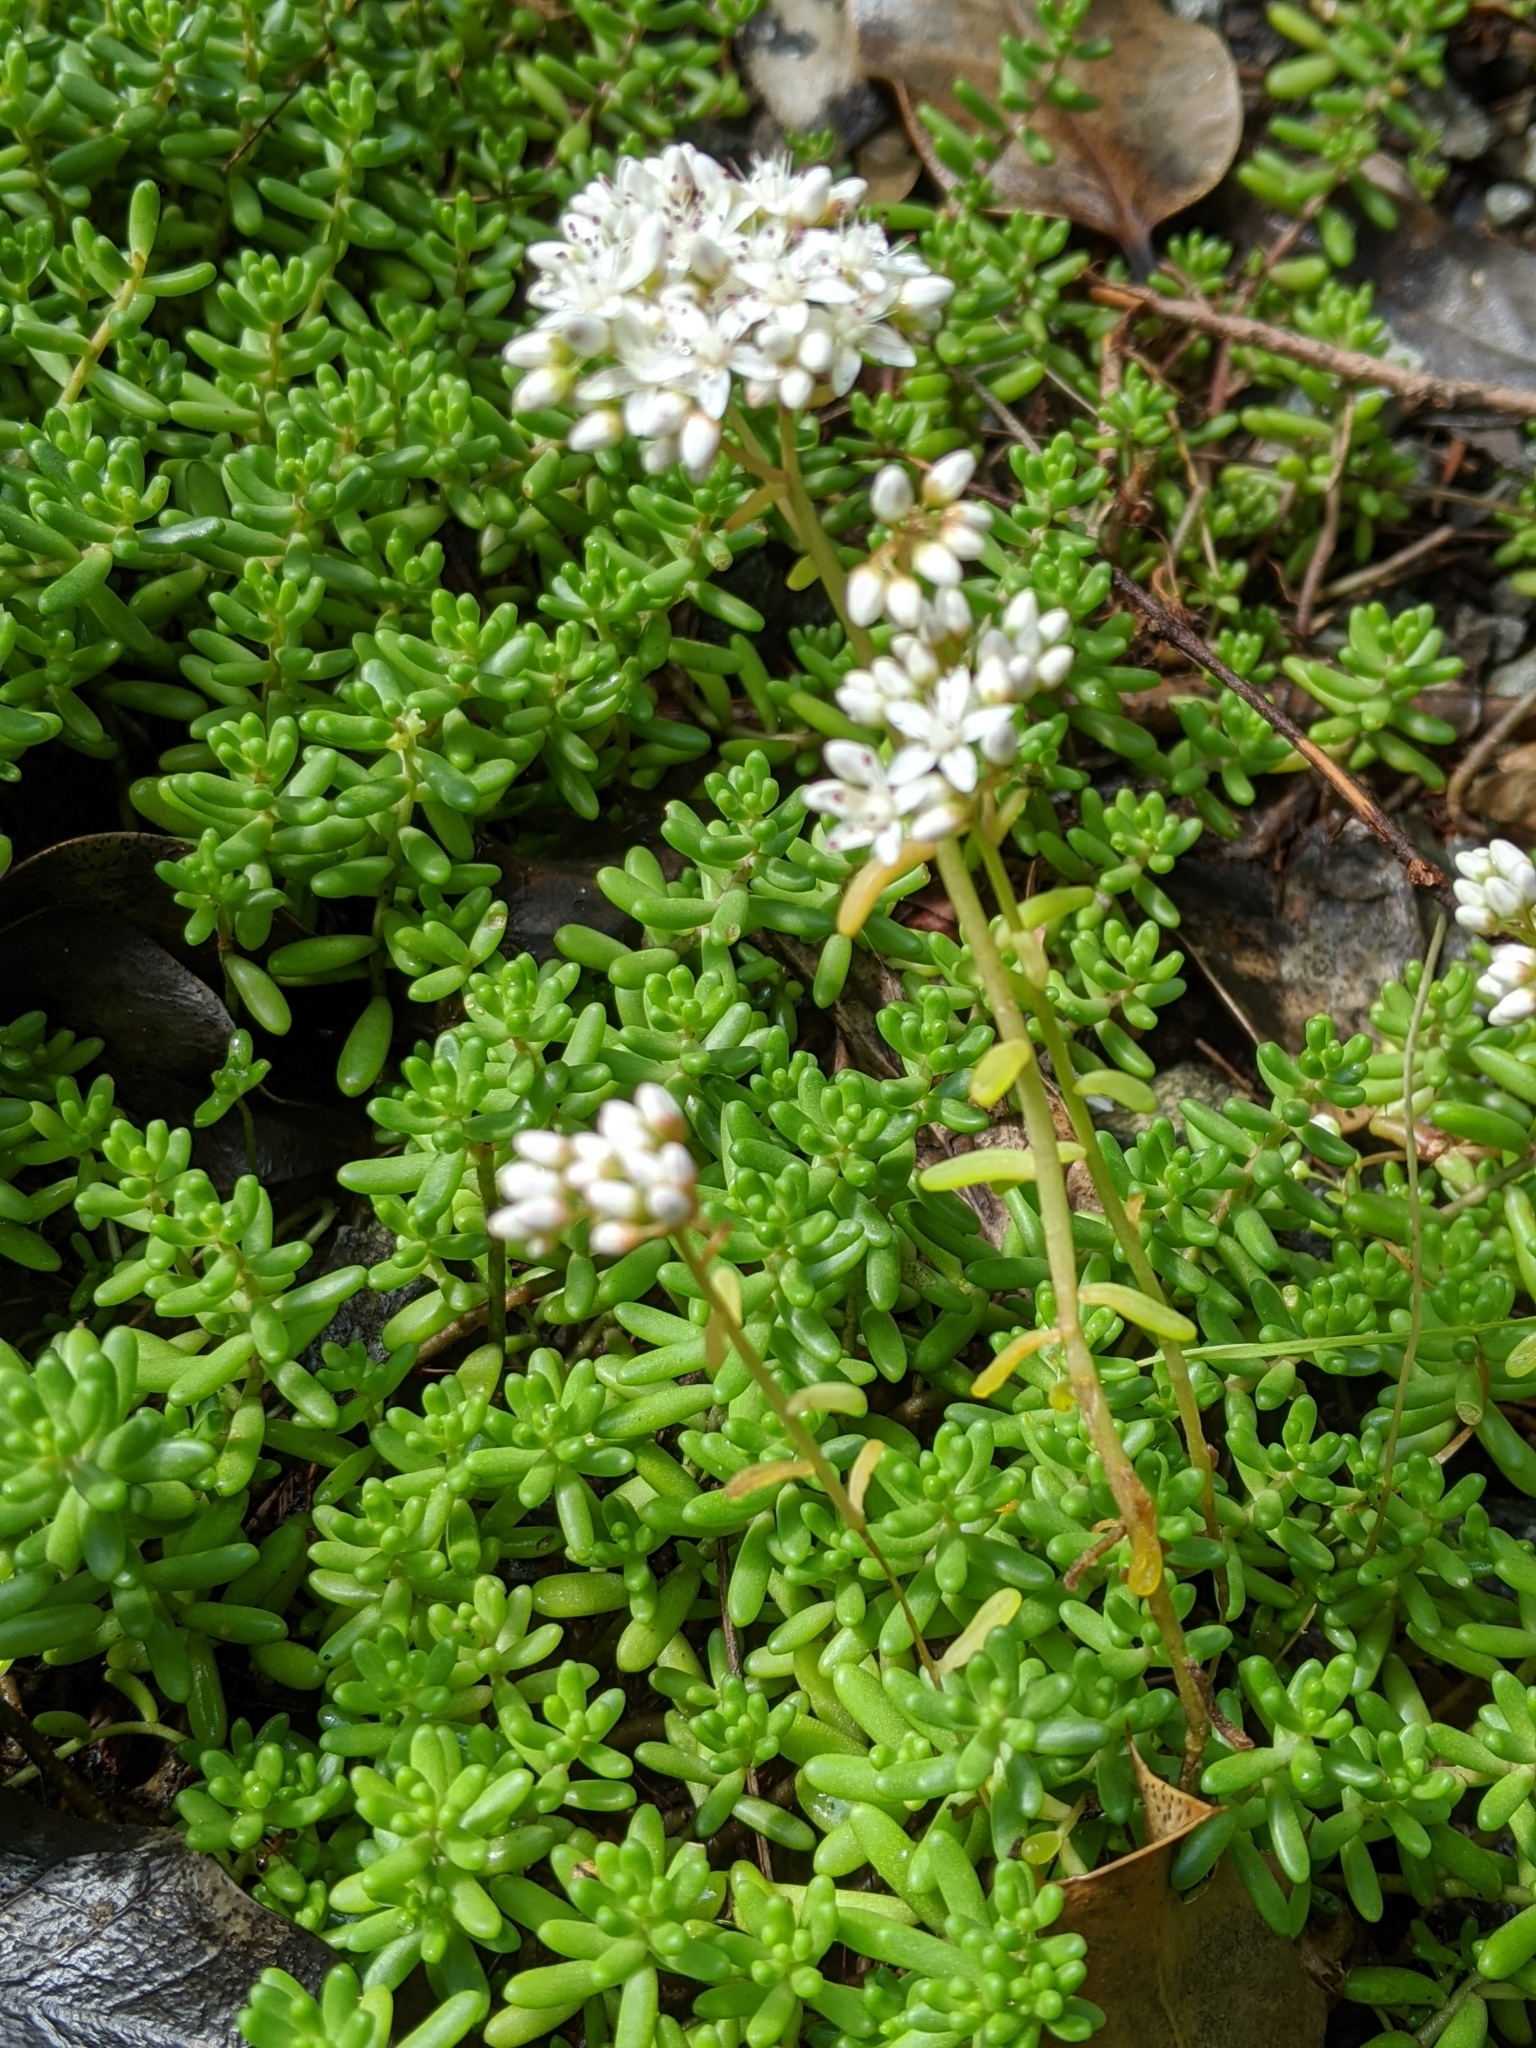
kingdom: Plantae
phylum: Tracheophyta
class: Magnoliopsida
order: Saxifragales
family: Crassulaceae
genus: Sedum
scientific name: Sedum album
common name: White stonecrop
